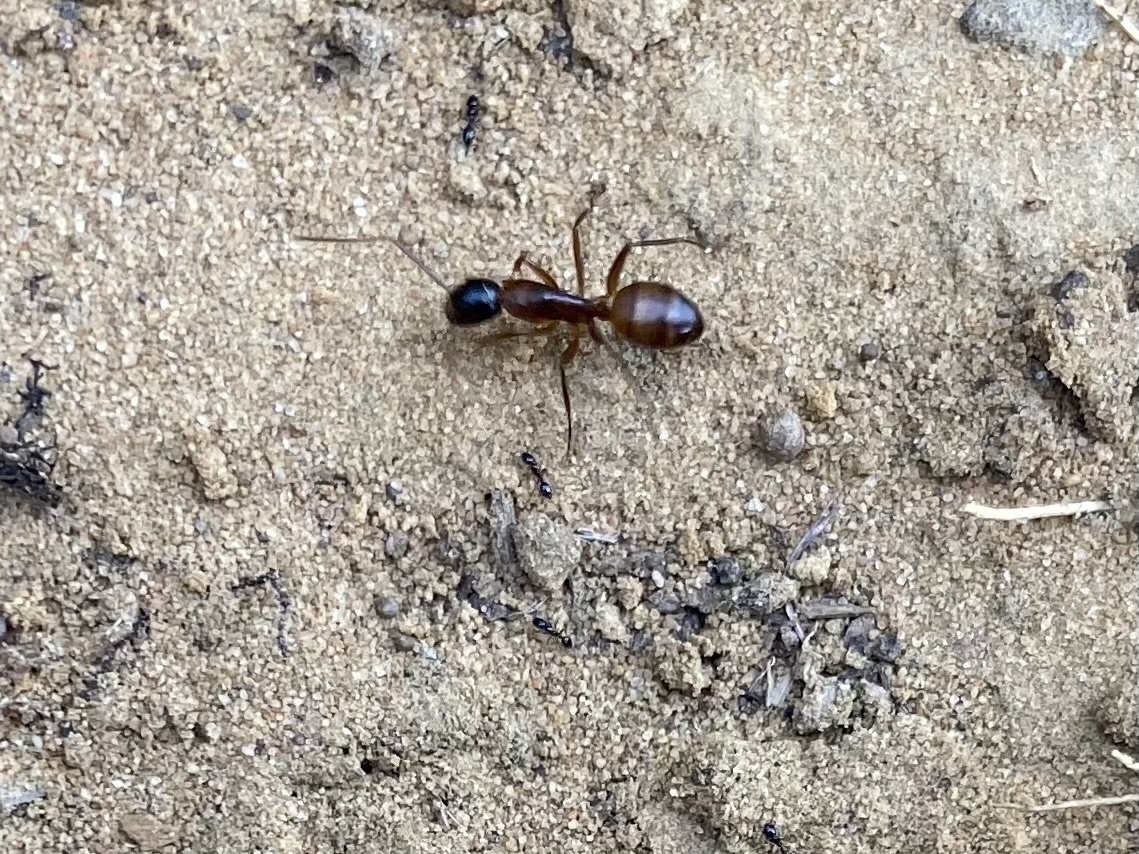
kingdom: Animalia
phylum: Arthropoda
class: Insecta
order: Hymenoptera
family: Formicidae
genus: Camponotus
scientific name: Camponotus americanus
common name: American carpenter ant
